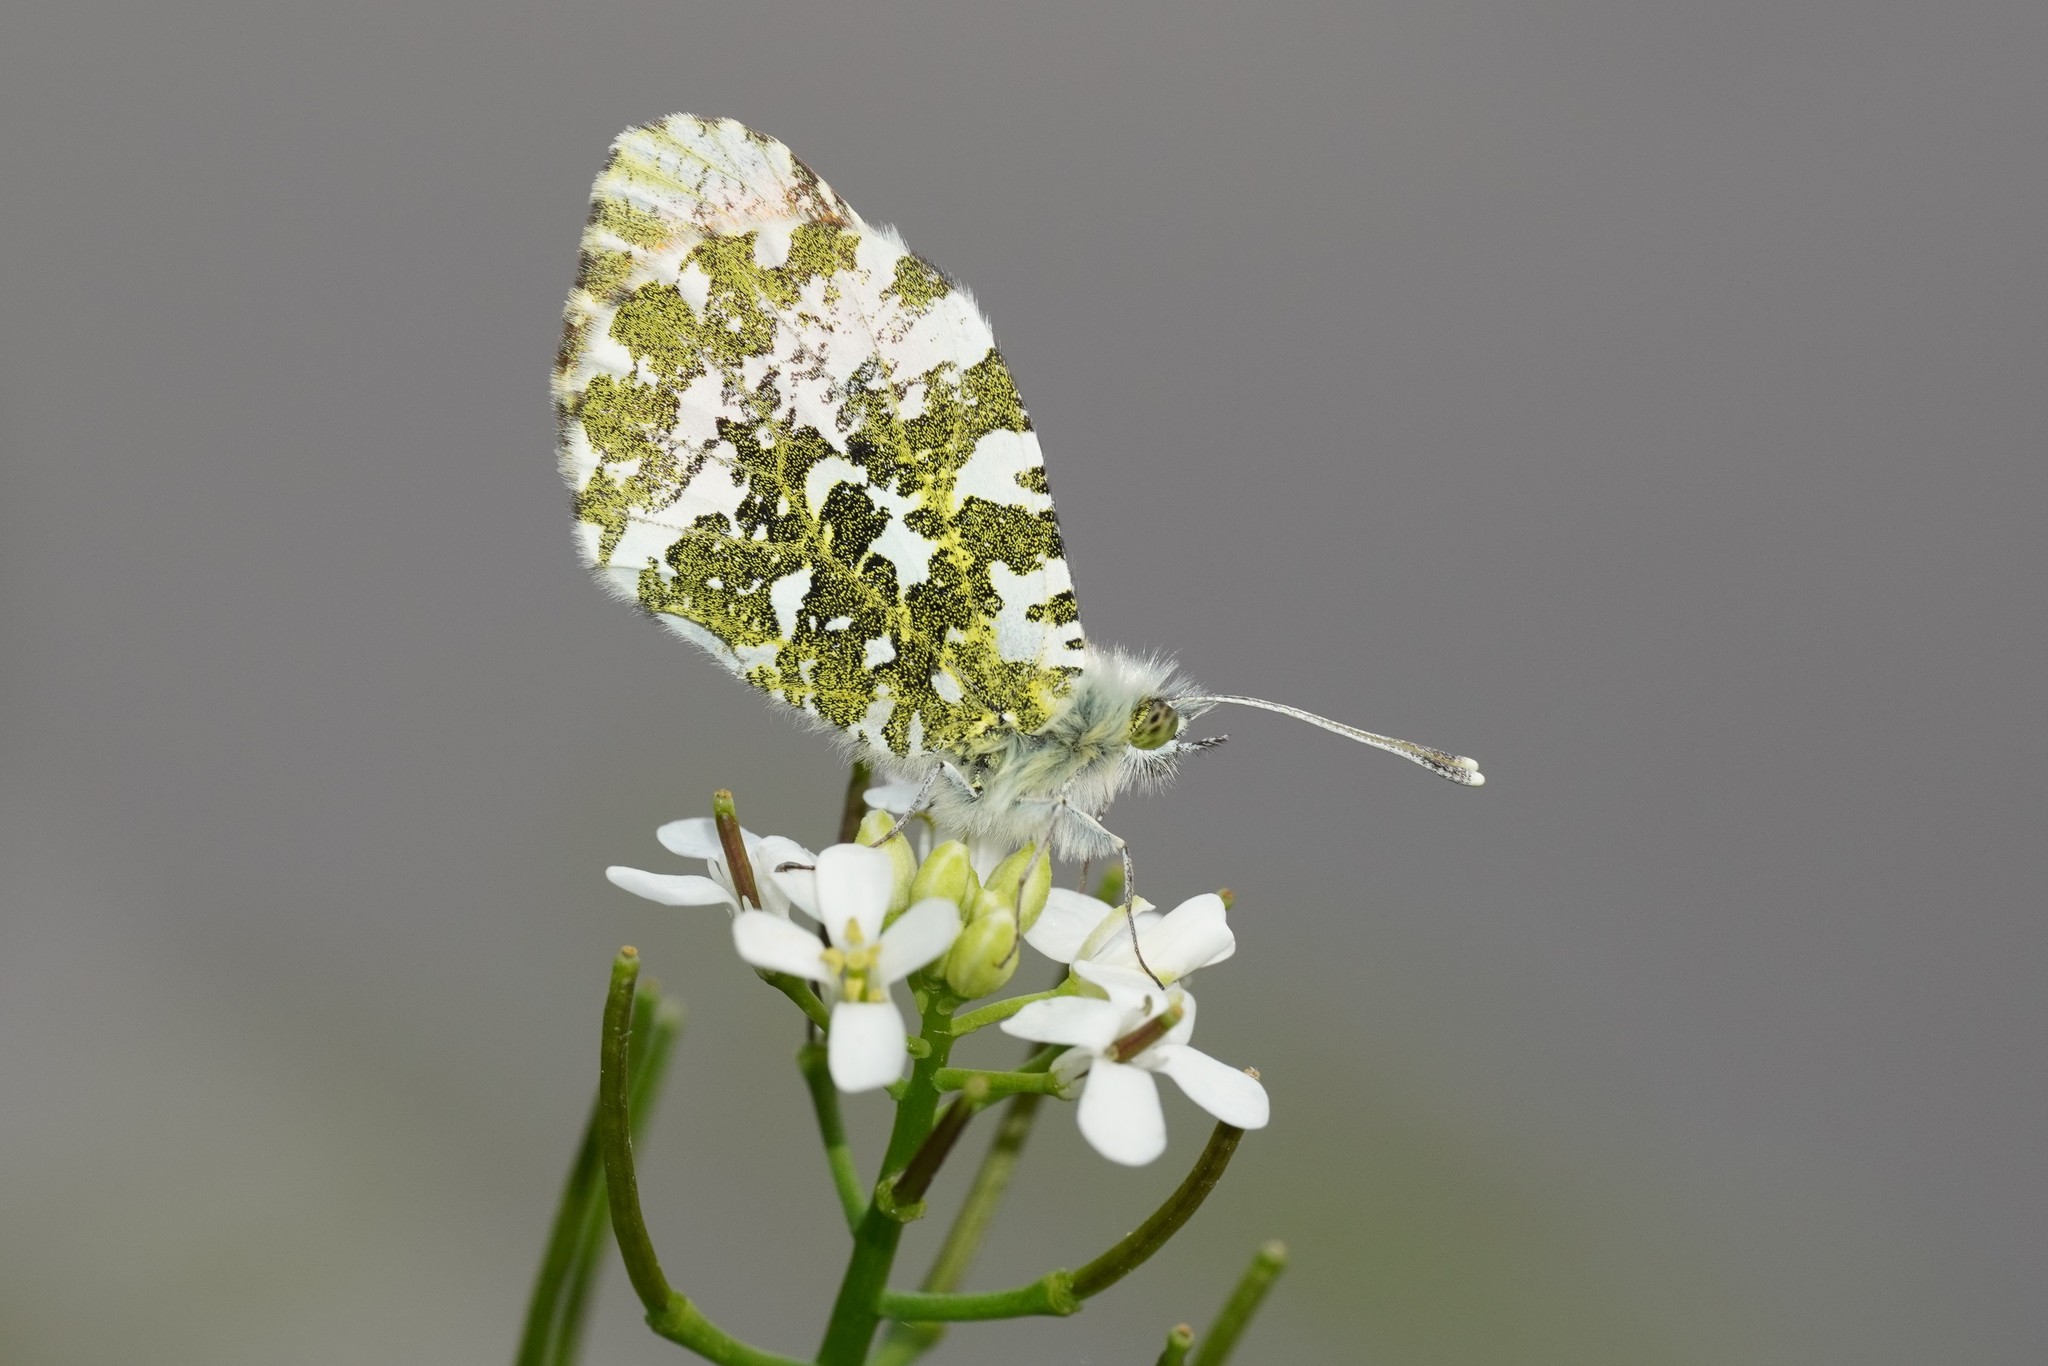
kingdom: Animalia
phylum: Arthropoda
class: Insecta
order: Lepidoptera
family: Pieridae
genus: Anthocharis
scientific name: Anthocharis cardamines
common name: Orange-tip
